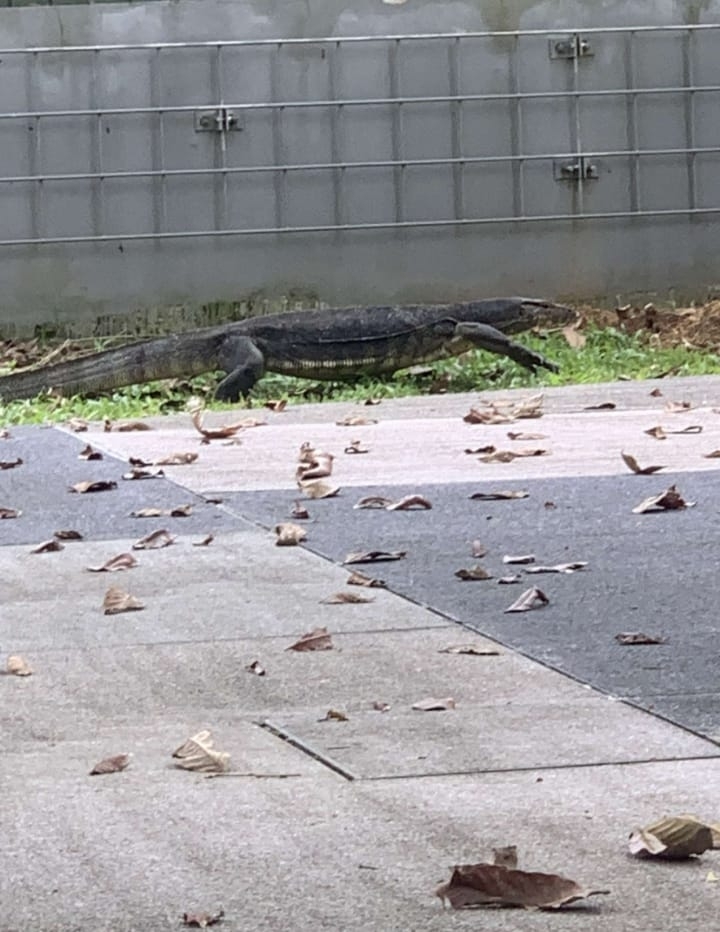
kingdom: Animalia
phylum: Chordata
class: Squamata
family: Varanidae
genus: Varanus
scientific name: Varanus salvator
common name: Common water monitor
